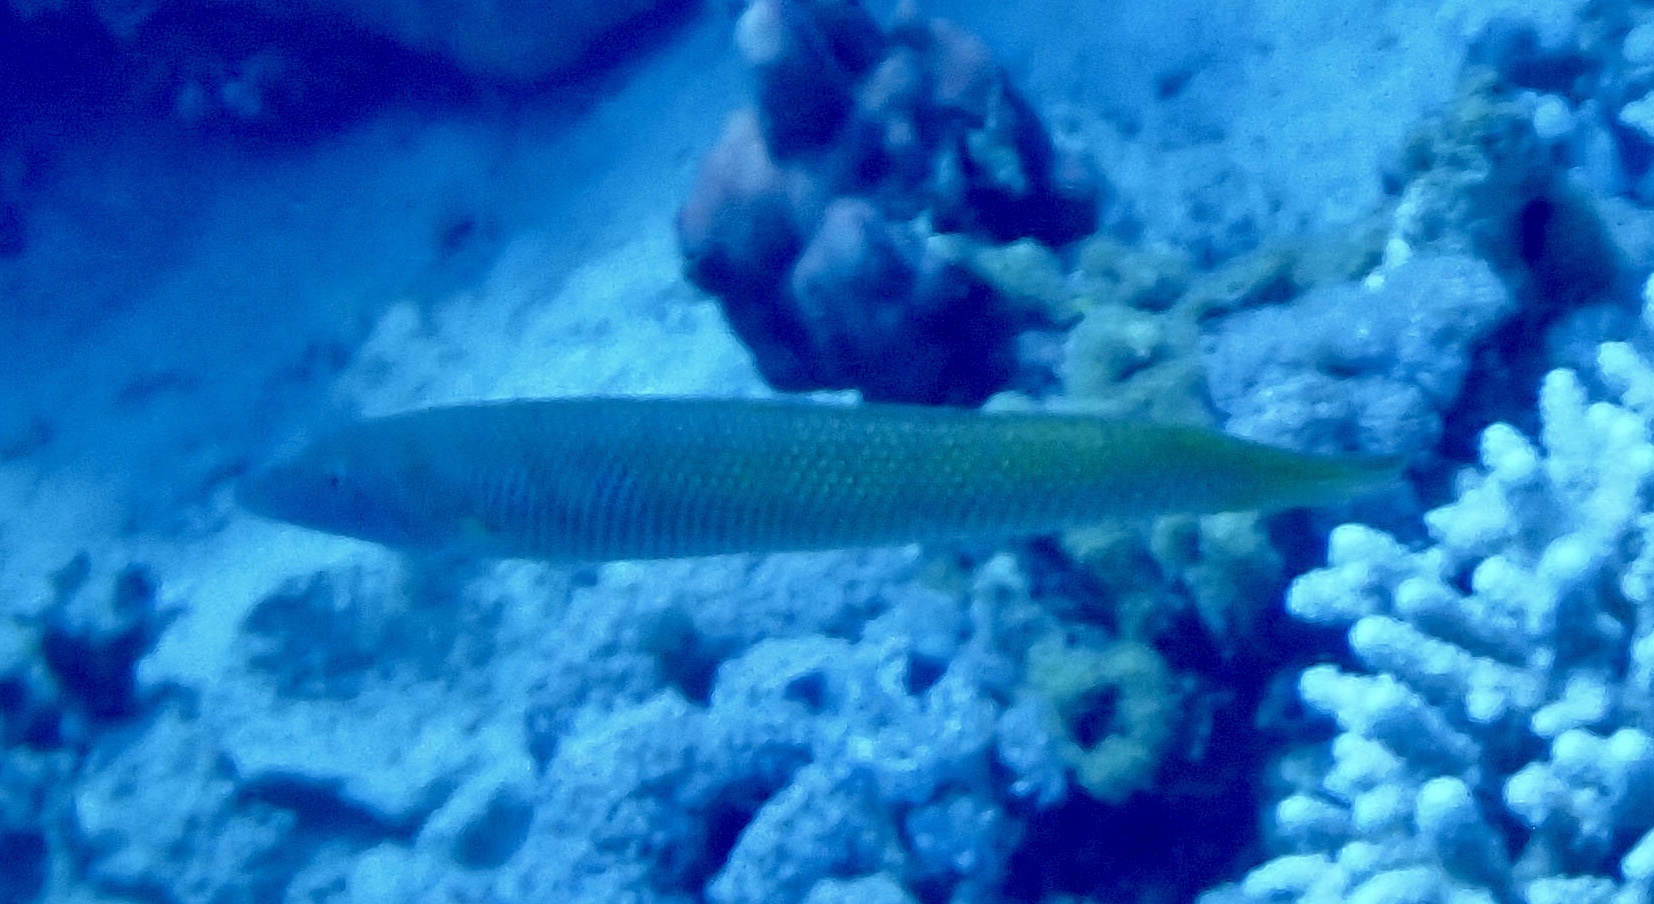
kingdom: Animalia
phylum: Chordata
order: Perciformes
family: Labridae
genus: Cheilio
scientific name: Cheilio inermis
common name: Cigar wrasse
